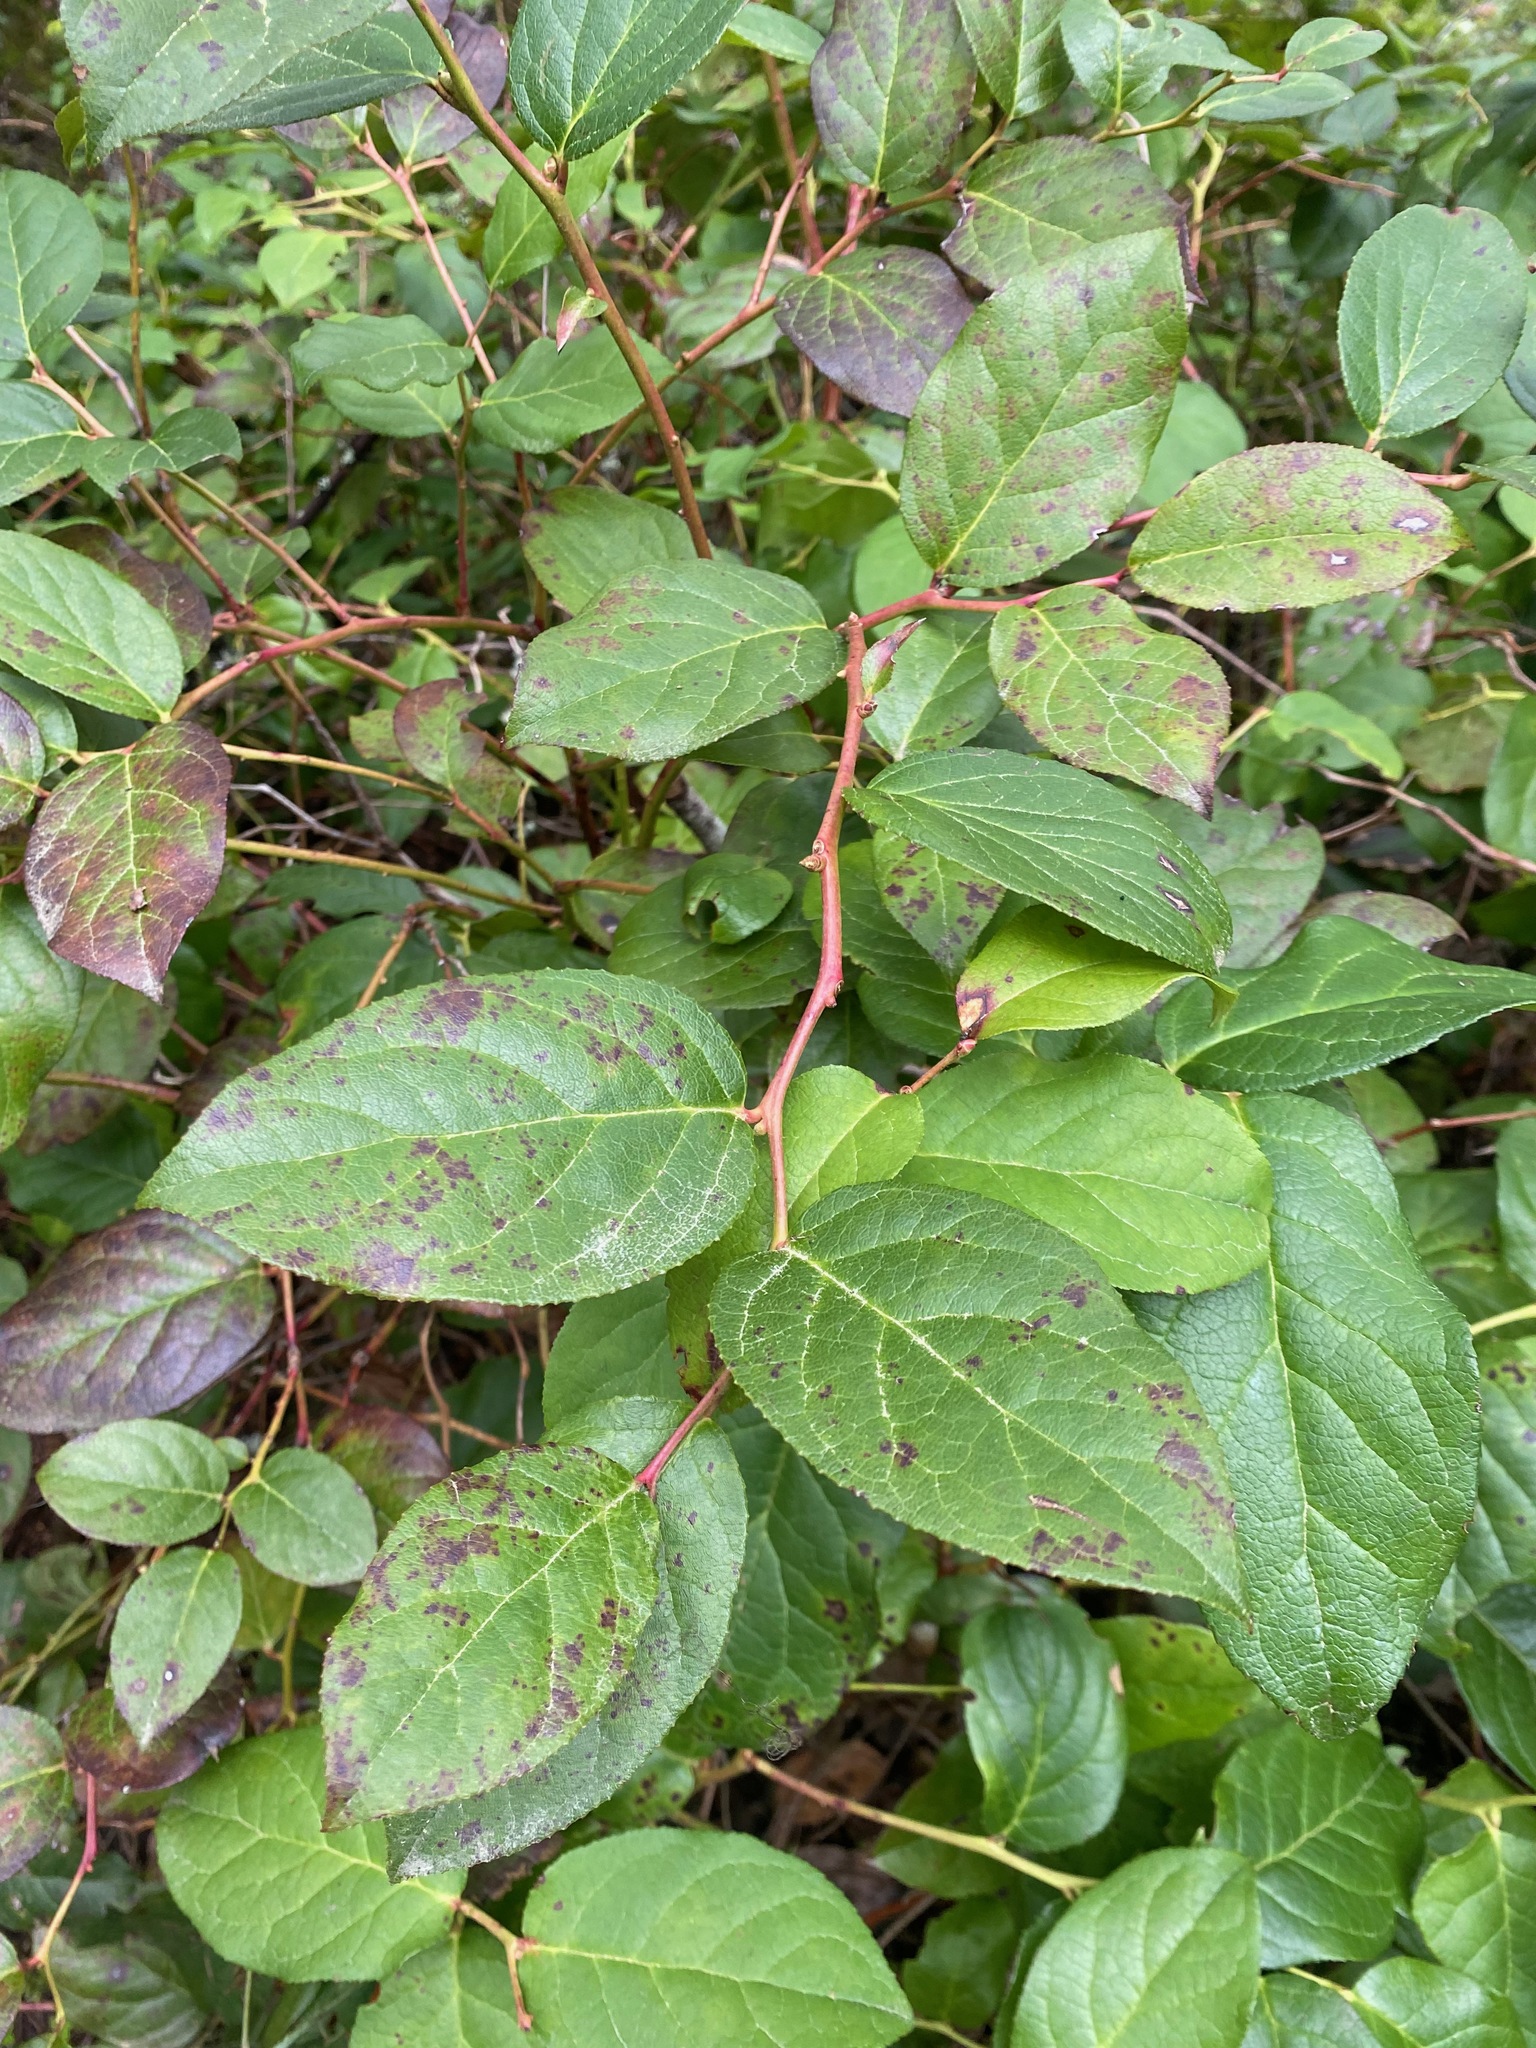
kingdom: Plantae
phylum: Tracheophyta
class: Magnoliopsida
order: Ericales
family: Ericaceae
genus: Gaultheria
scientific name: Gaultheria shallon
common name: Shallon
